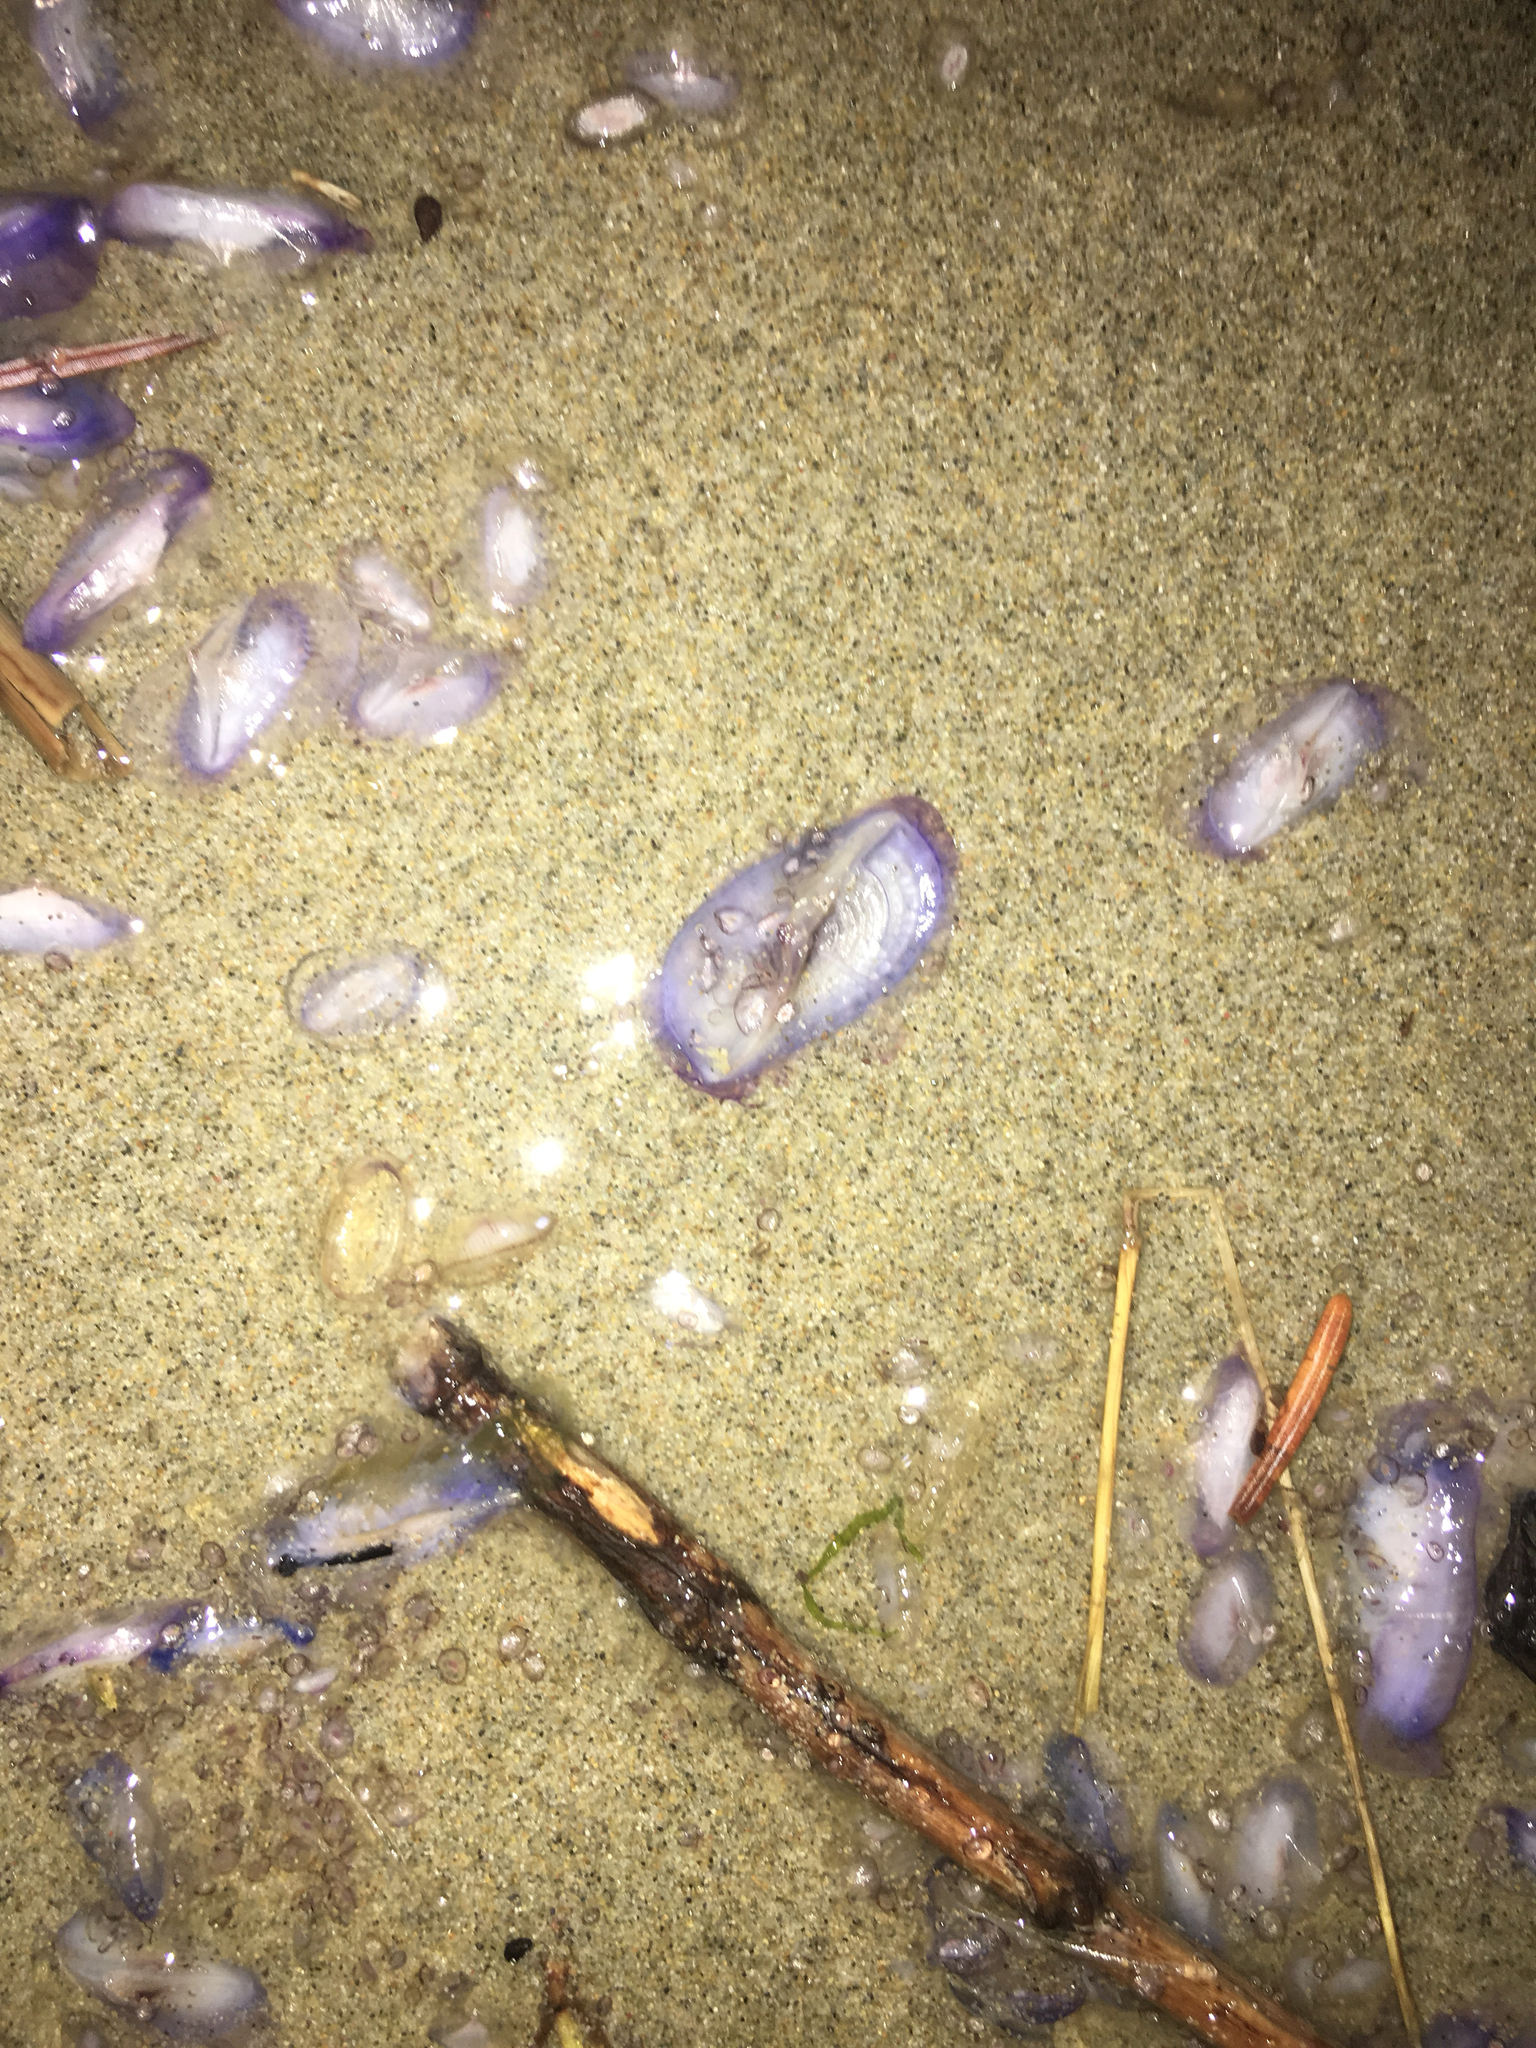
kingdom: Animalia
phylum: Cnidaria
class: Hydrozoa
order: Anthoathecata
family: Porpitidae
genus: Velella
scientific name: Velella velella
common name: By-the-wind-sailor
